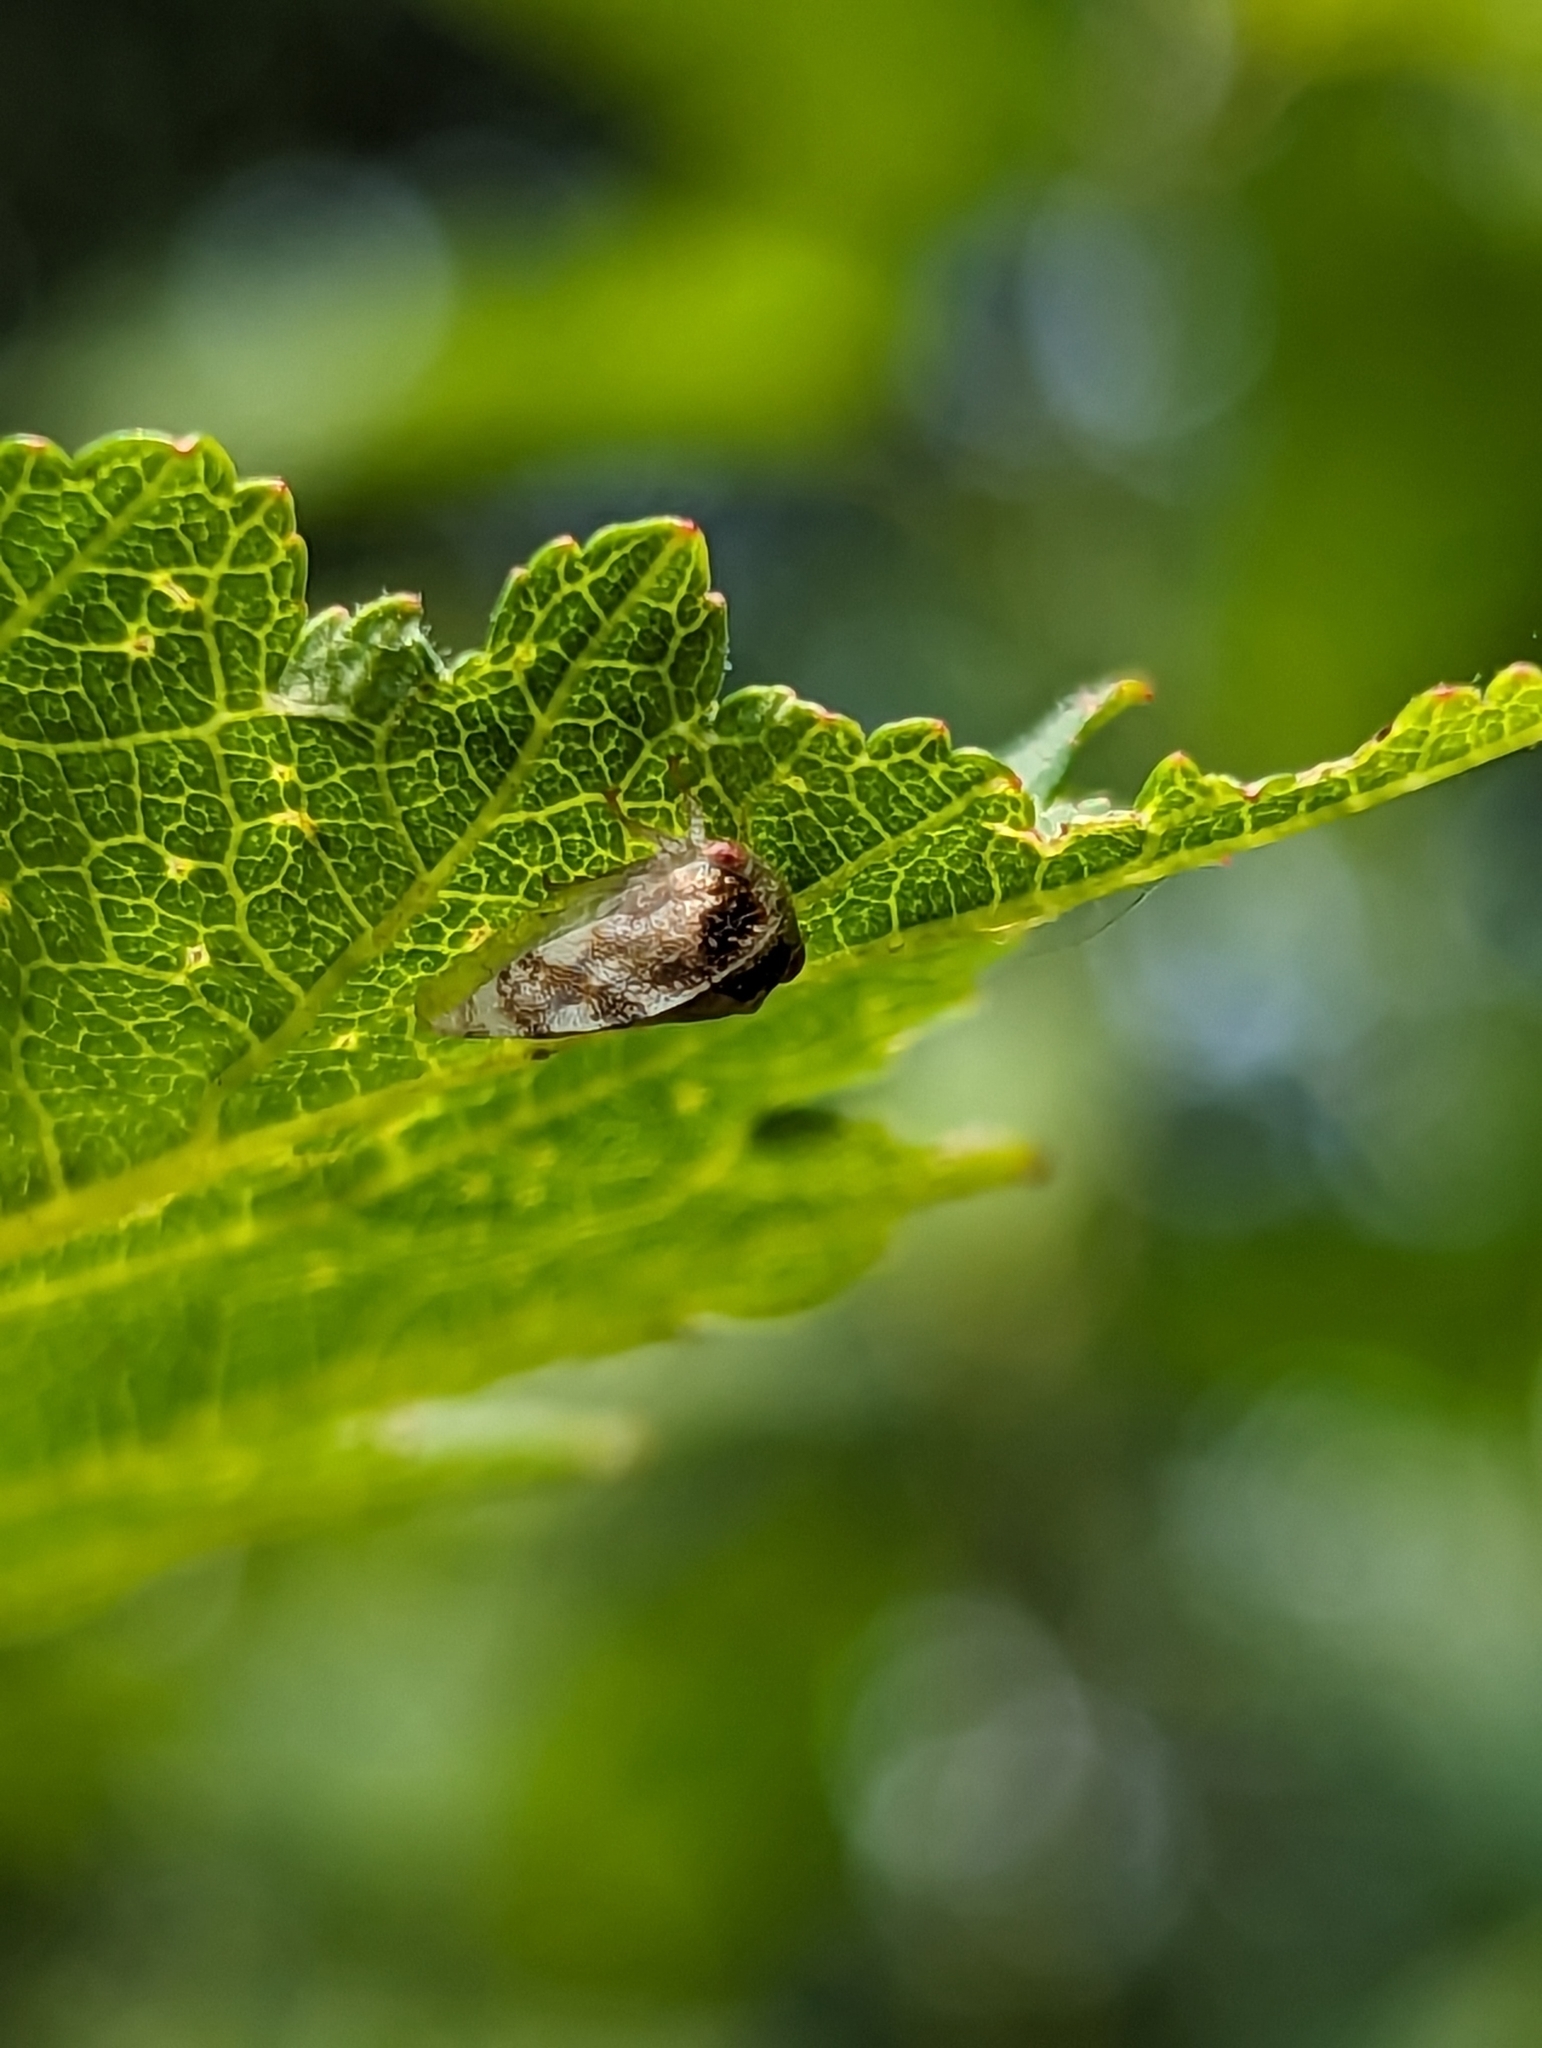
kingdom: Animalia
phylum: Arthropoda
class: Insecta
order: Hemiptera
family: Aphrophoridae
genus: Philaenus
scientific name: Philaenus spumarius
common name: Meadow spittlebug
